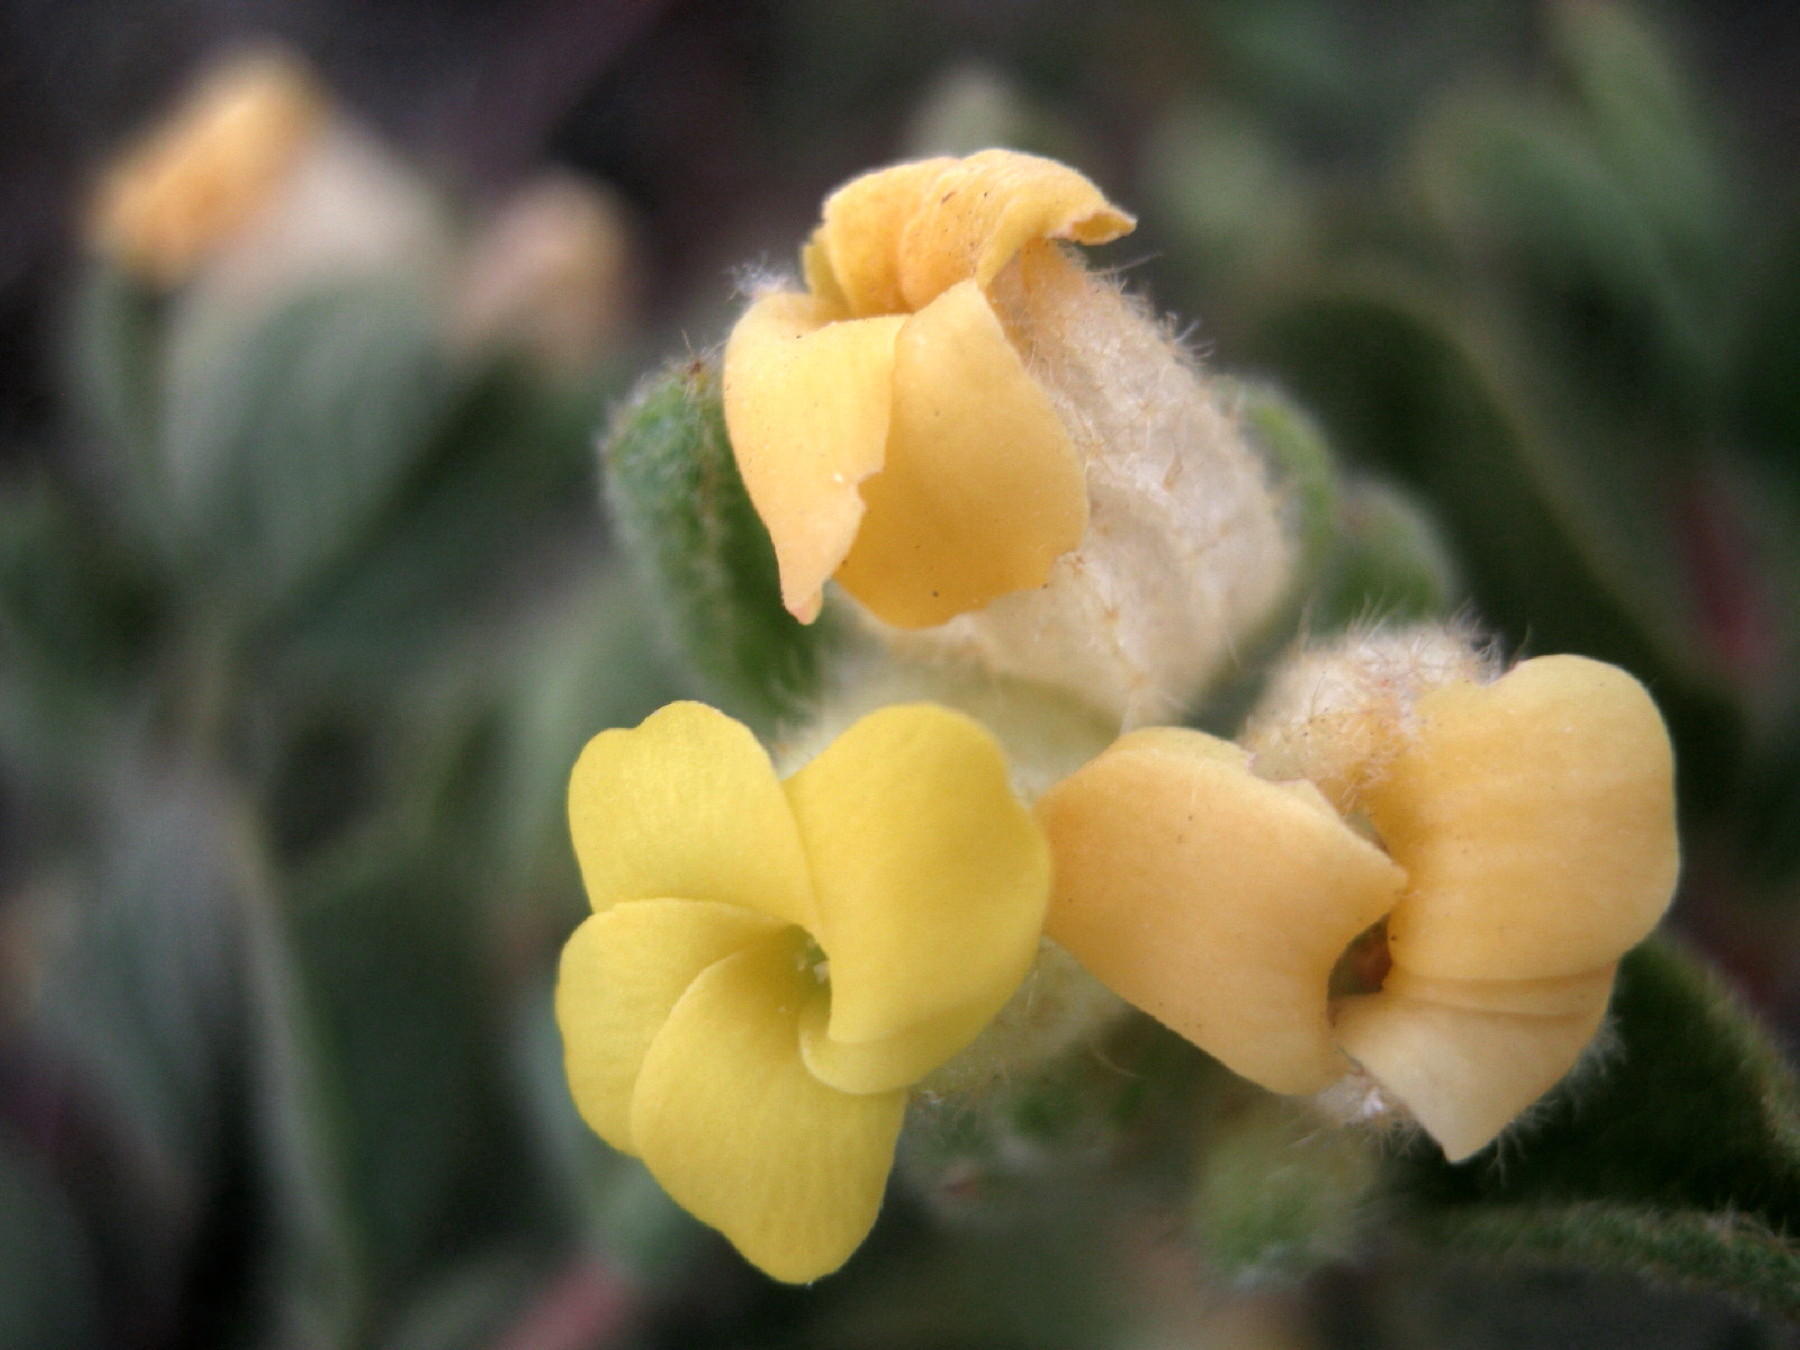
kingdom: Plantae
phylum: Tracheophyta
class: Magnoliopsida
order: Malvales
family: Malvaceae
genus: Hermannia
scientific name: Hermannia salviifolia
